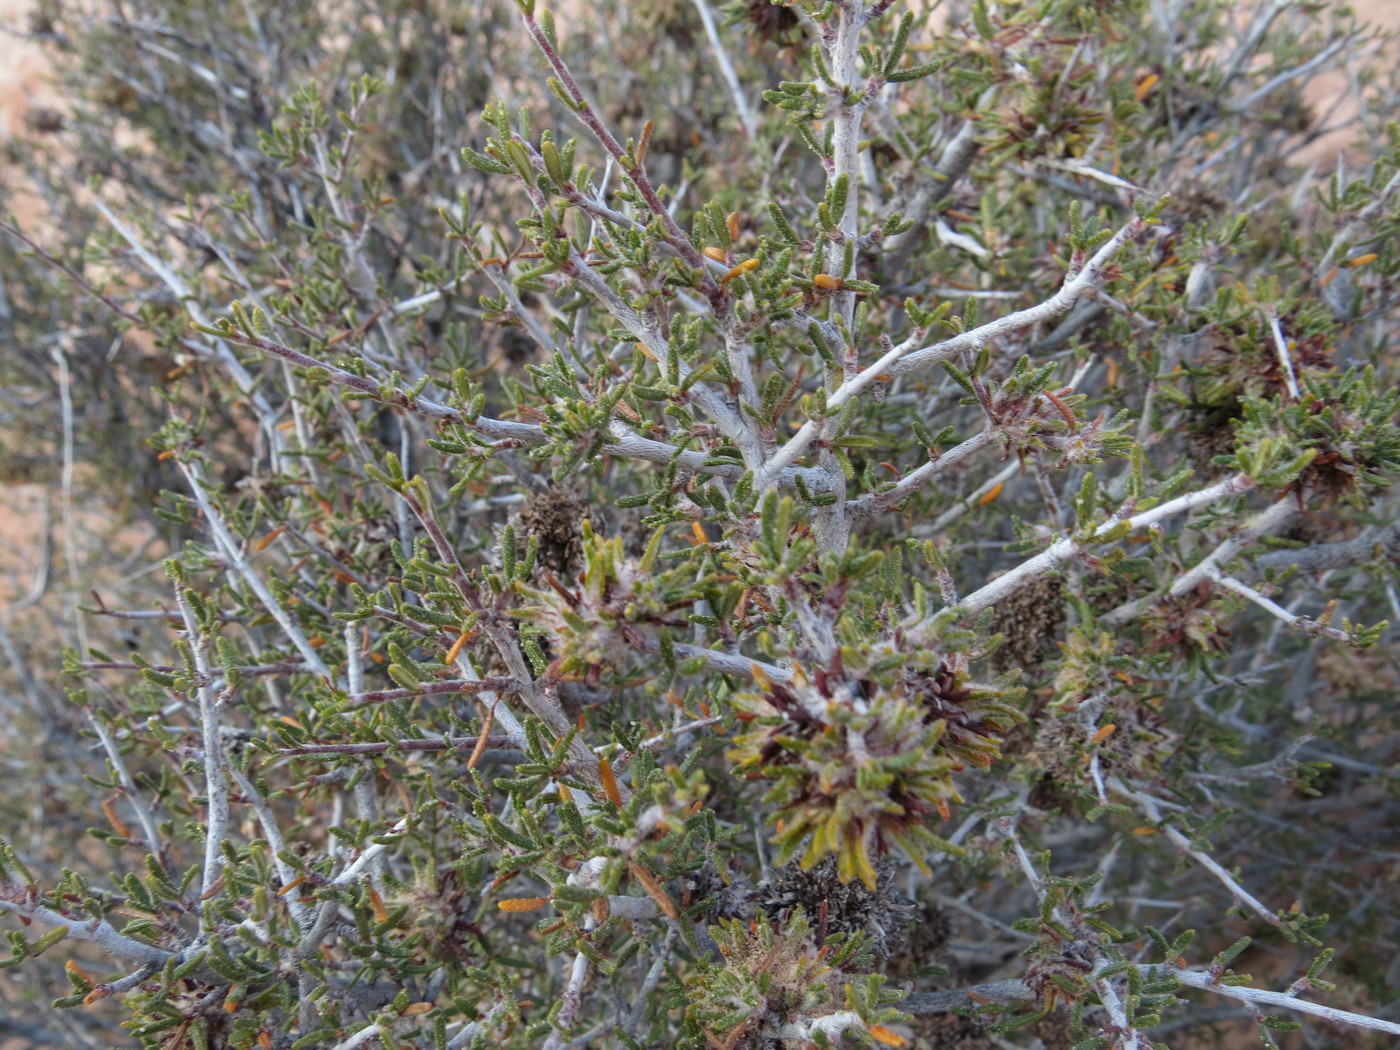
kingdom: Plantae
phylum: Tracheophyta
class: Magnoliopsida
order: Rosales
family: Rosaceae
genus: Cercocarpus
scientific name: Cercocarpus intricatus
